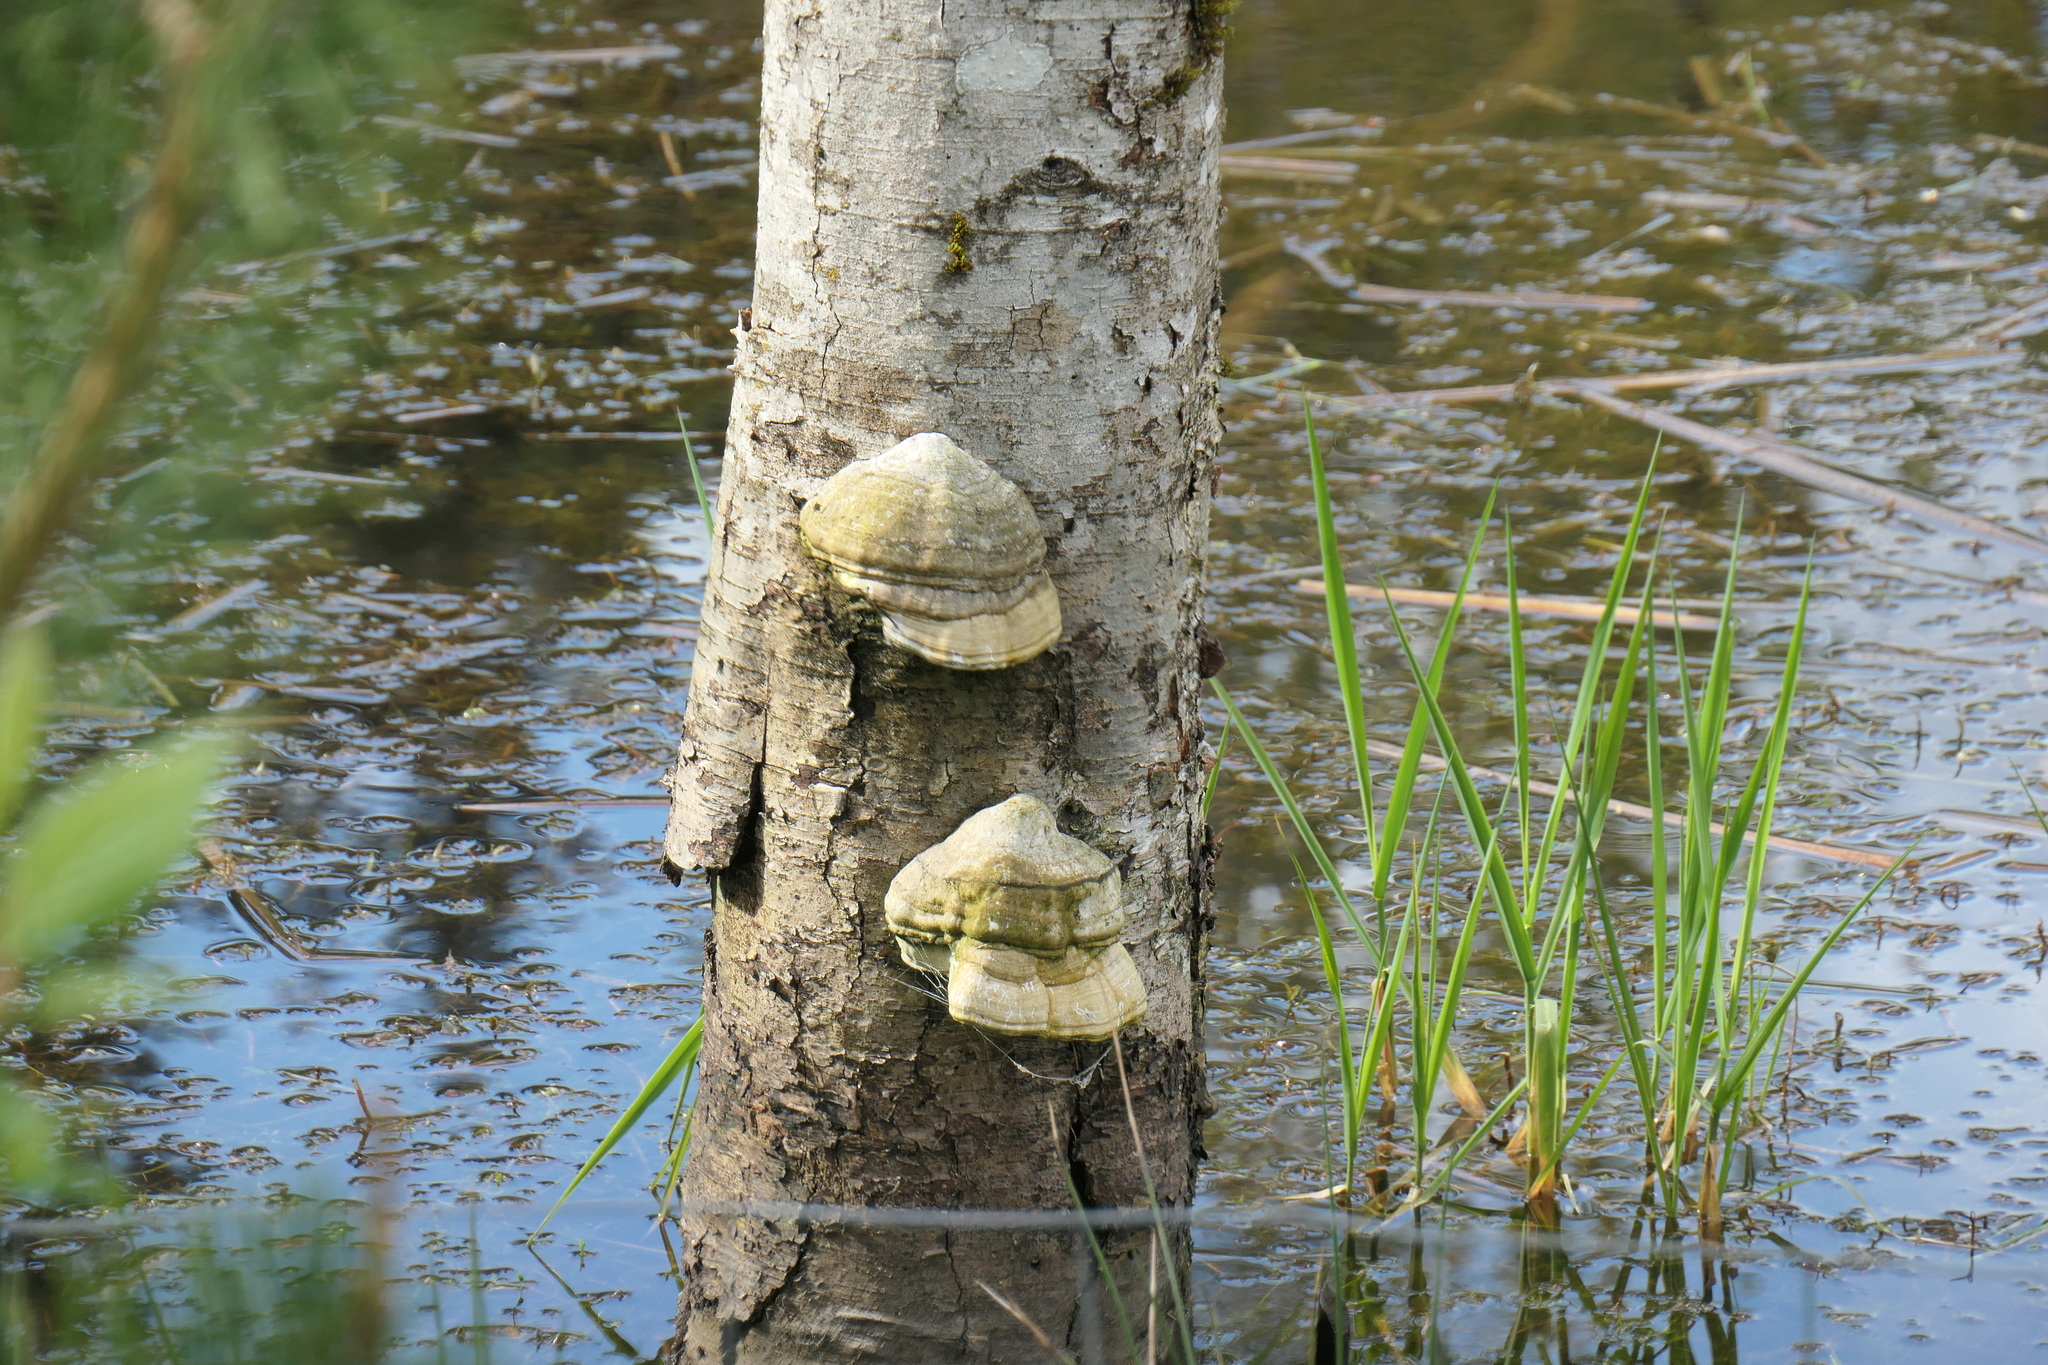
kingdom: Fungi
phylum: Basidiomycota
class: Agaricomycetes
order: Polyporales
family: Polyporaceae
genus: Fomes
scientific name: Fomes fomentarius
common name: Hoof fungus
